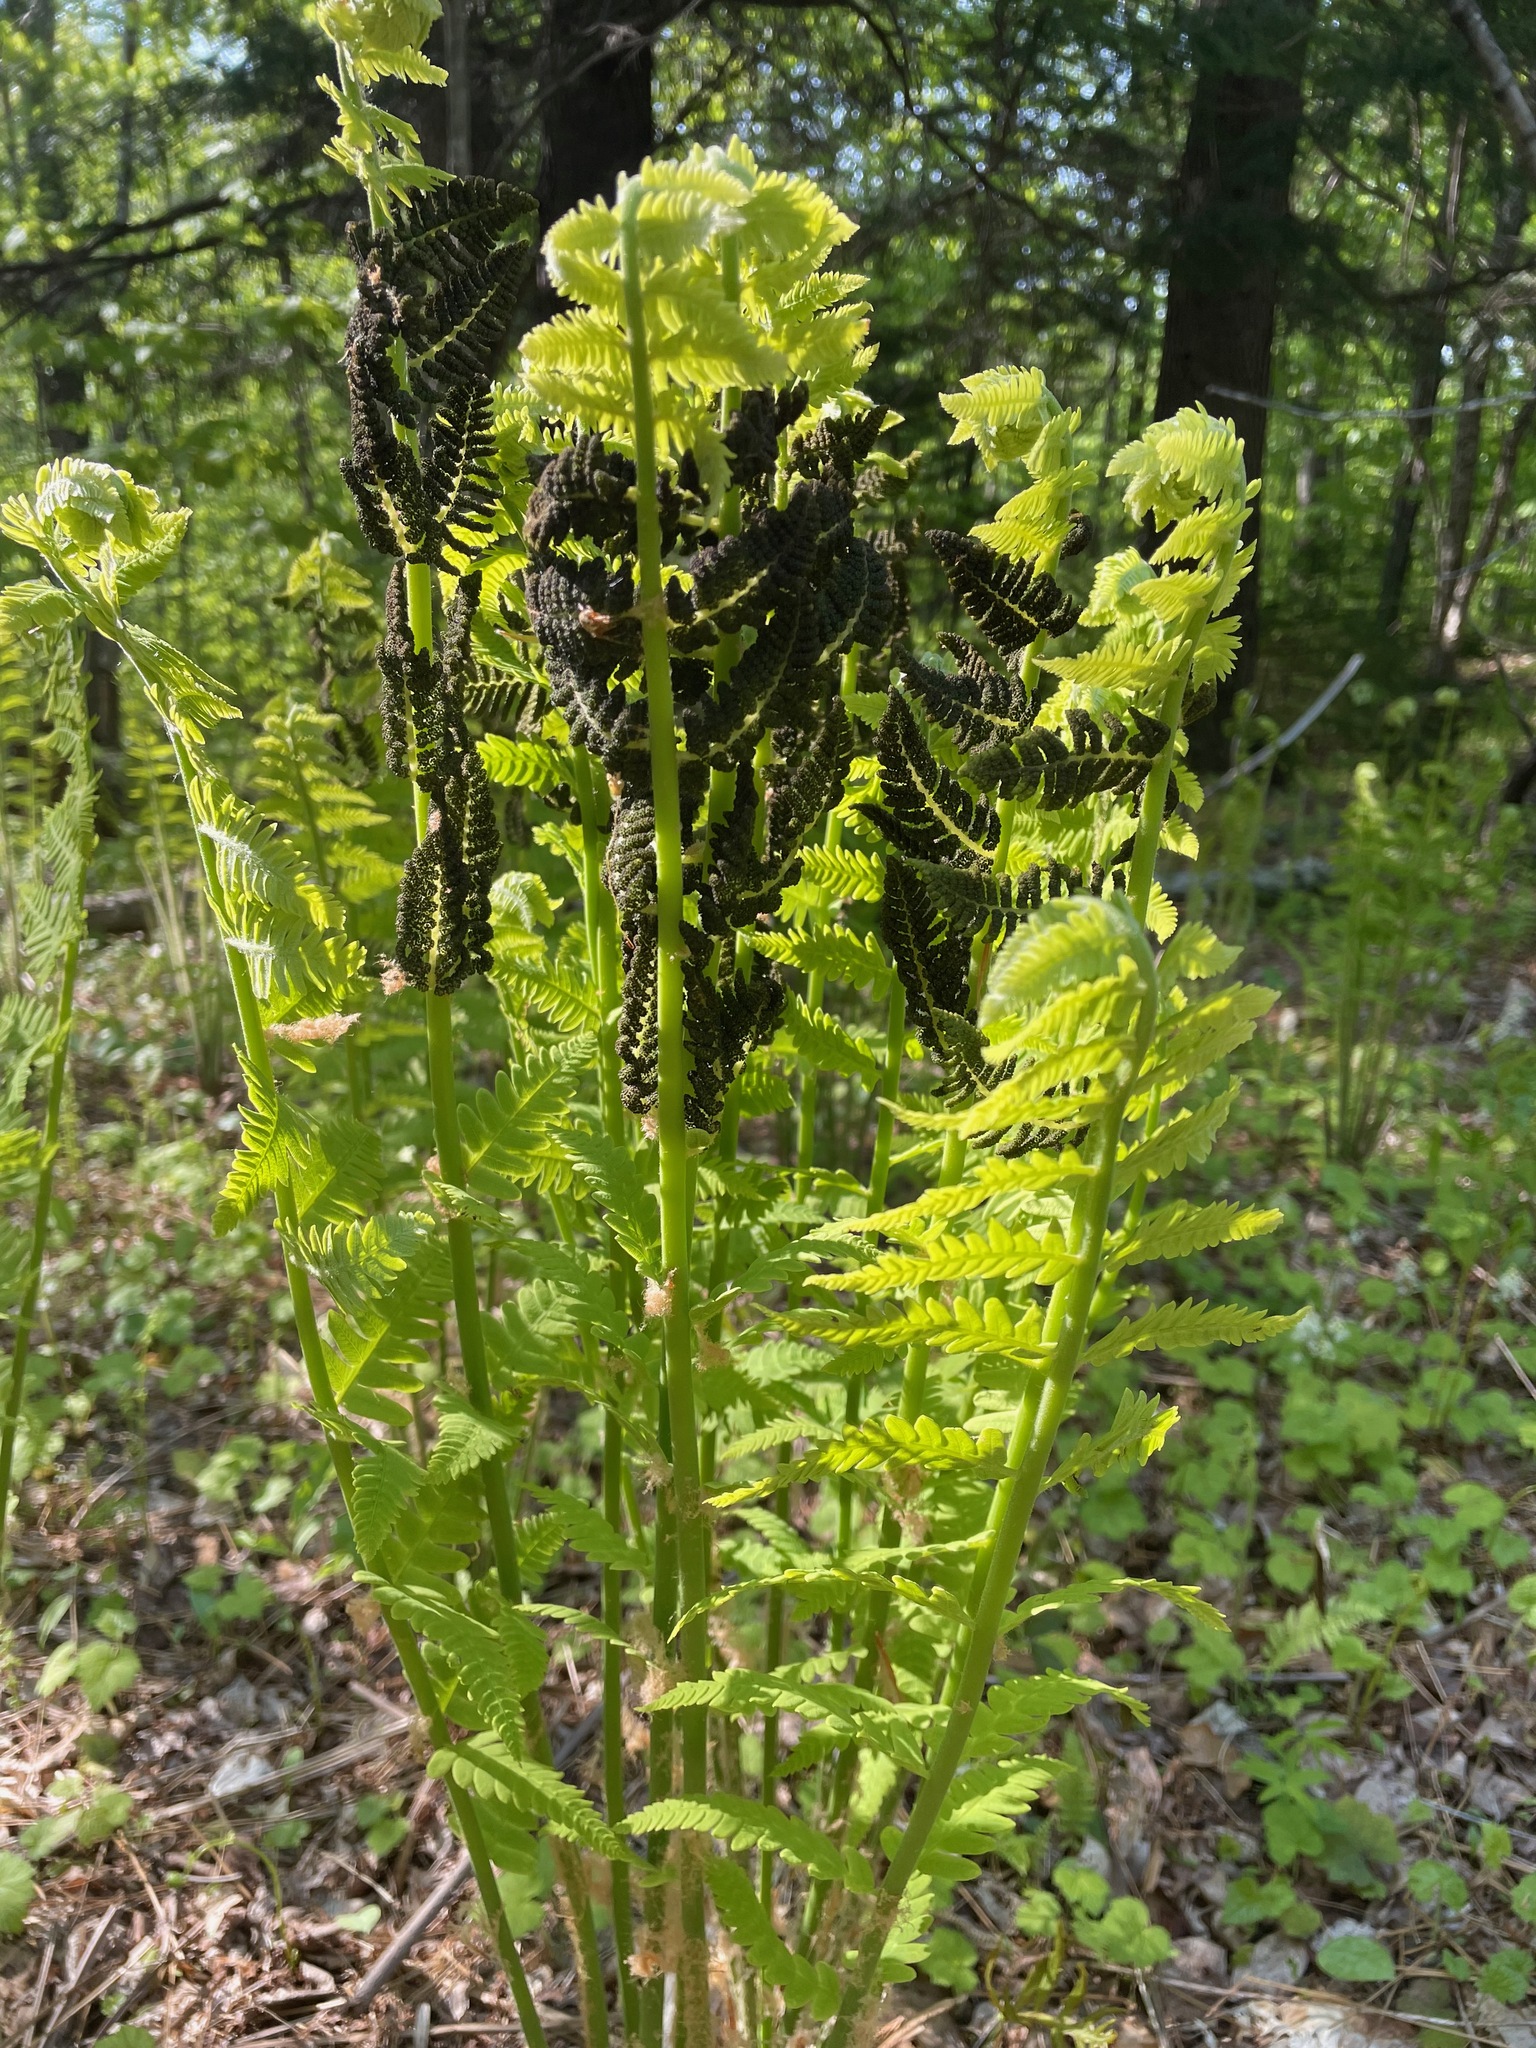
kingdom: Plantae
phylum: Tracheophyta
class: Polypodiopsida
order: Osmundales
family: Osmundaceae
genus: Claytosmunda
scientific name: Claytosmunda claytoniana
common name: Clayton's fern
